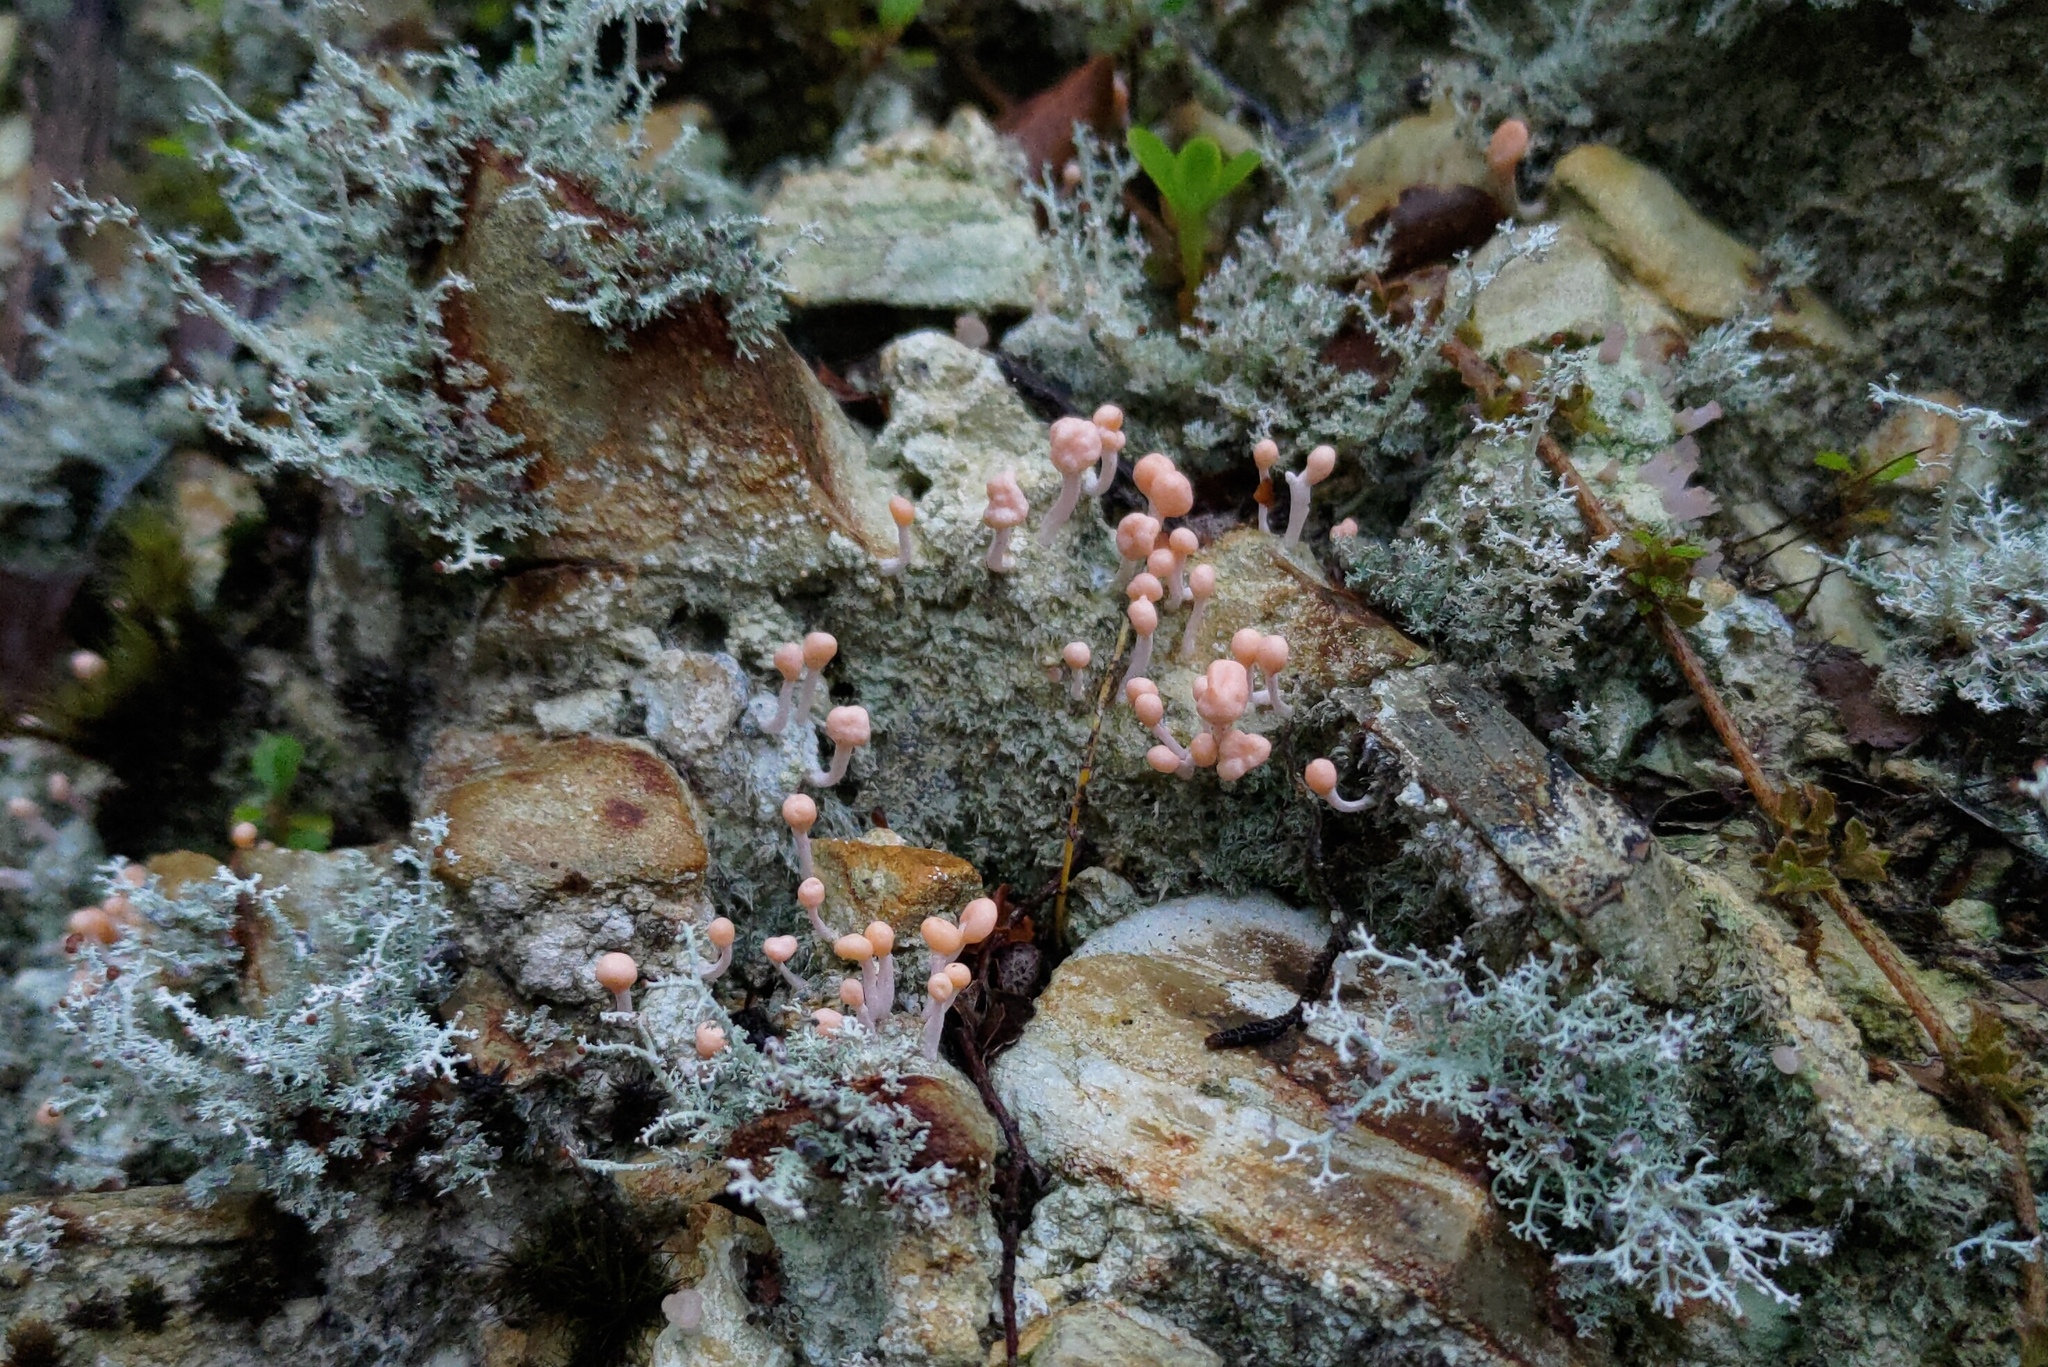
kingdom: Fungi
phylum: Ascomycota
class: Lecanoromycetes
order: Pertusariales
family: Icmadophilaceae
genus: Dibaeis
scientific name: Dibaeis arcuata
